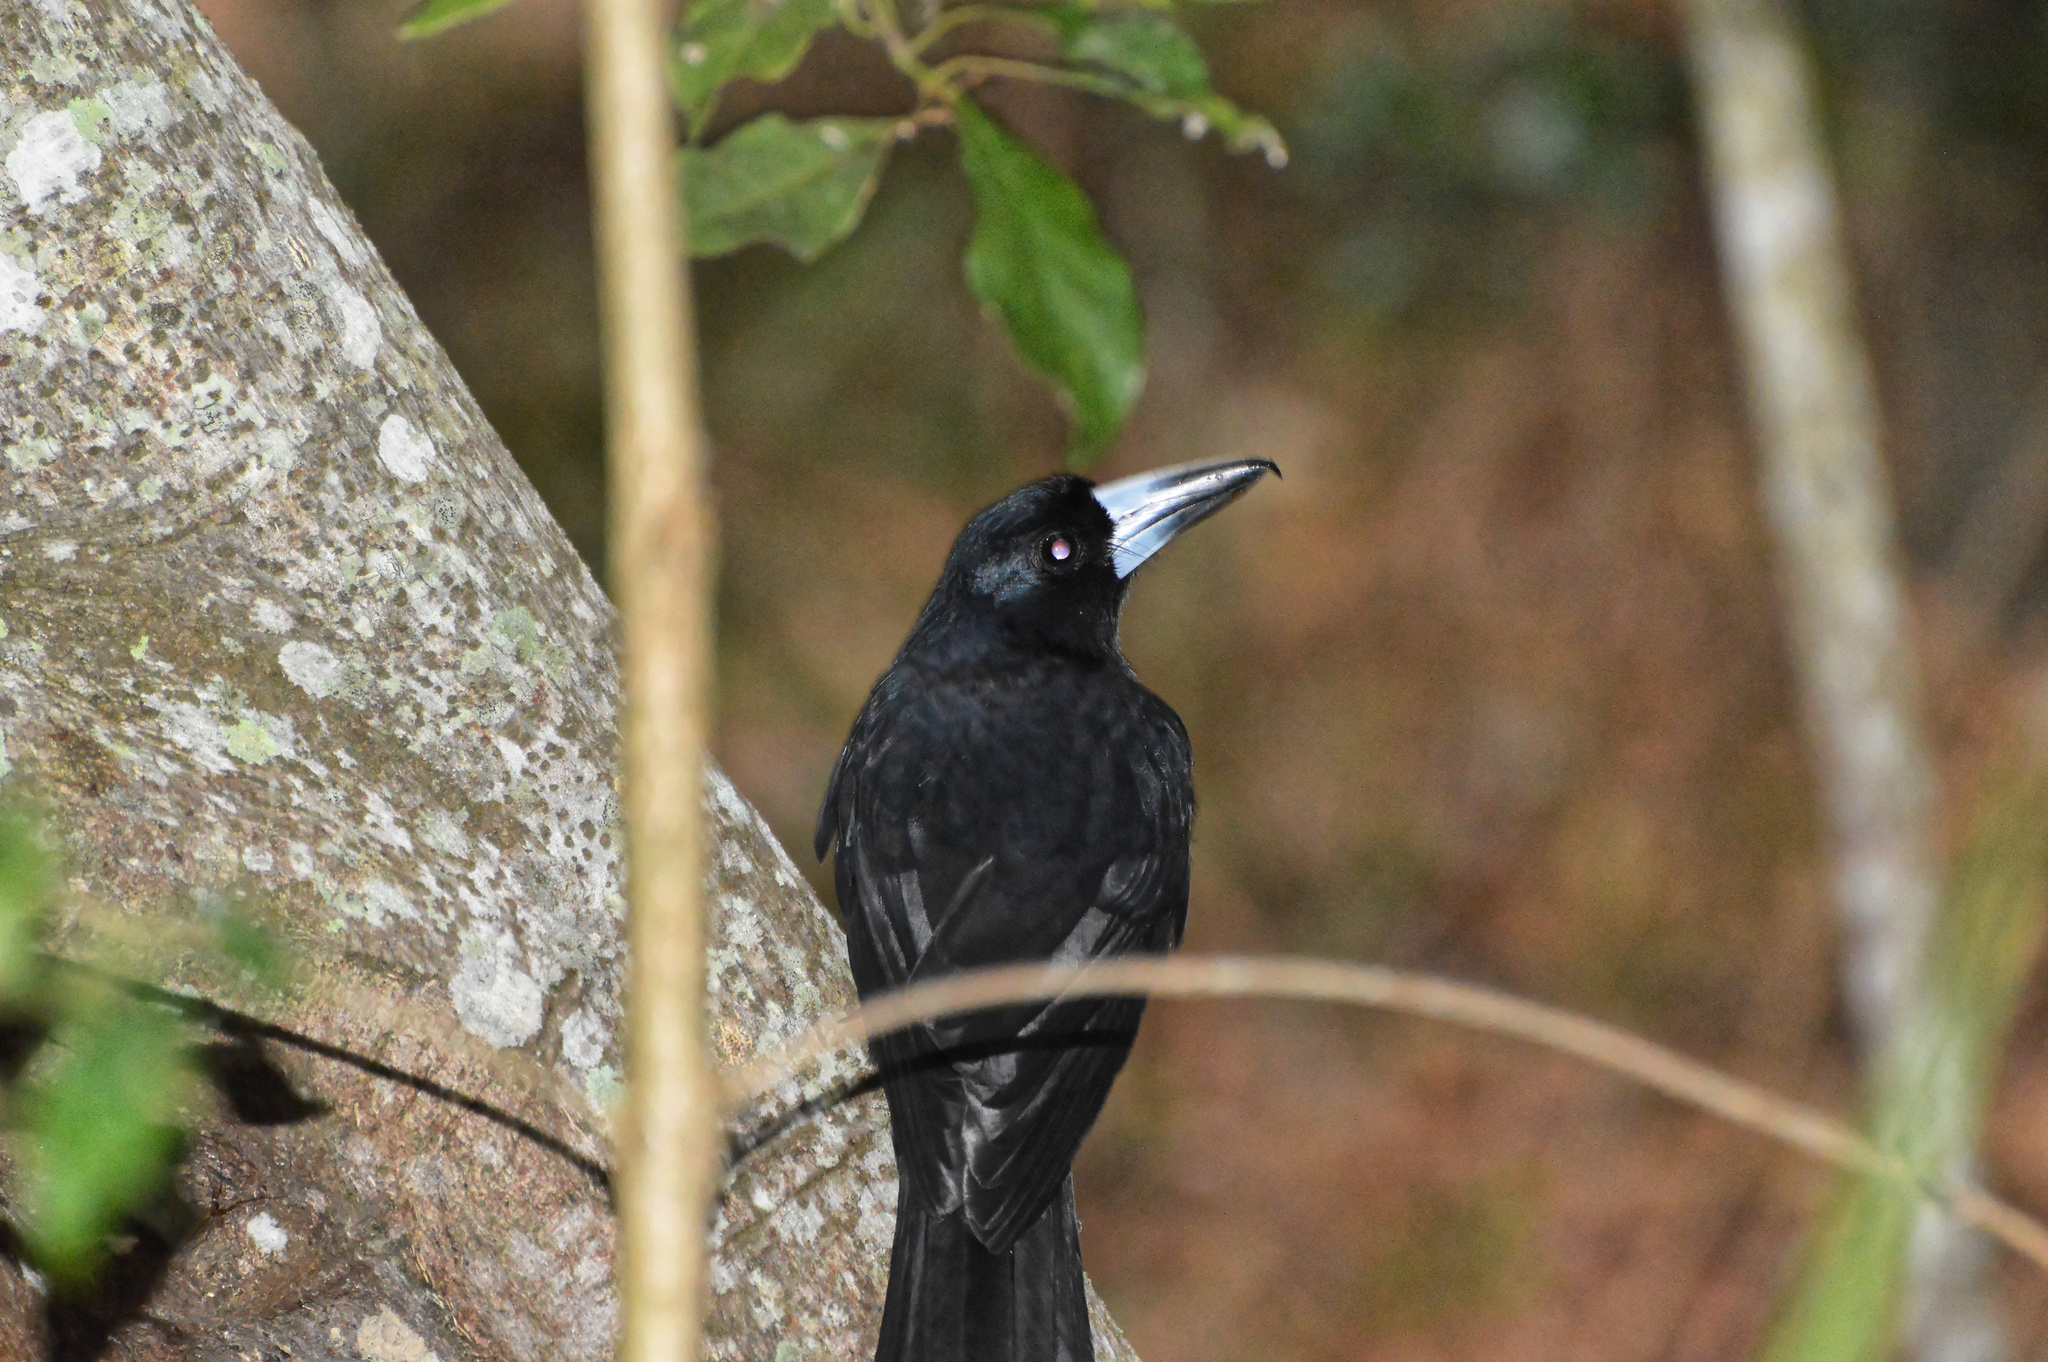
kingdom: Animalia
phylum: Chordata
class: Aves
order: Passeriformes
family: Artamidae
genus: Melloria
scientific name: Melloria quoyi
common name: Black butcherbird
